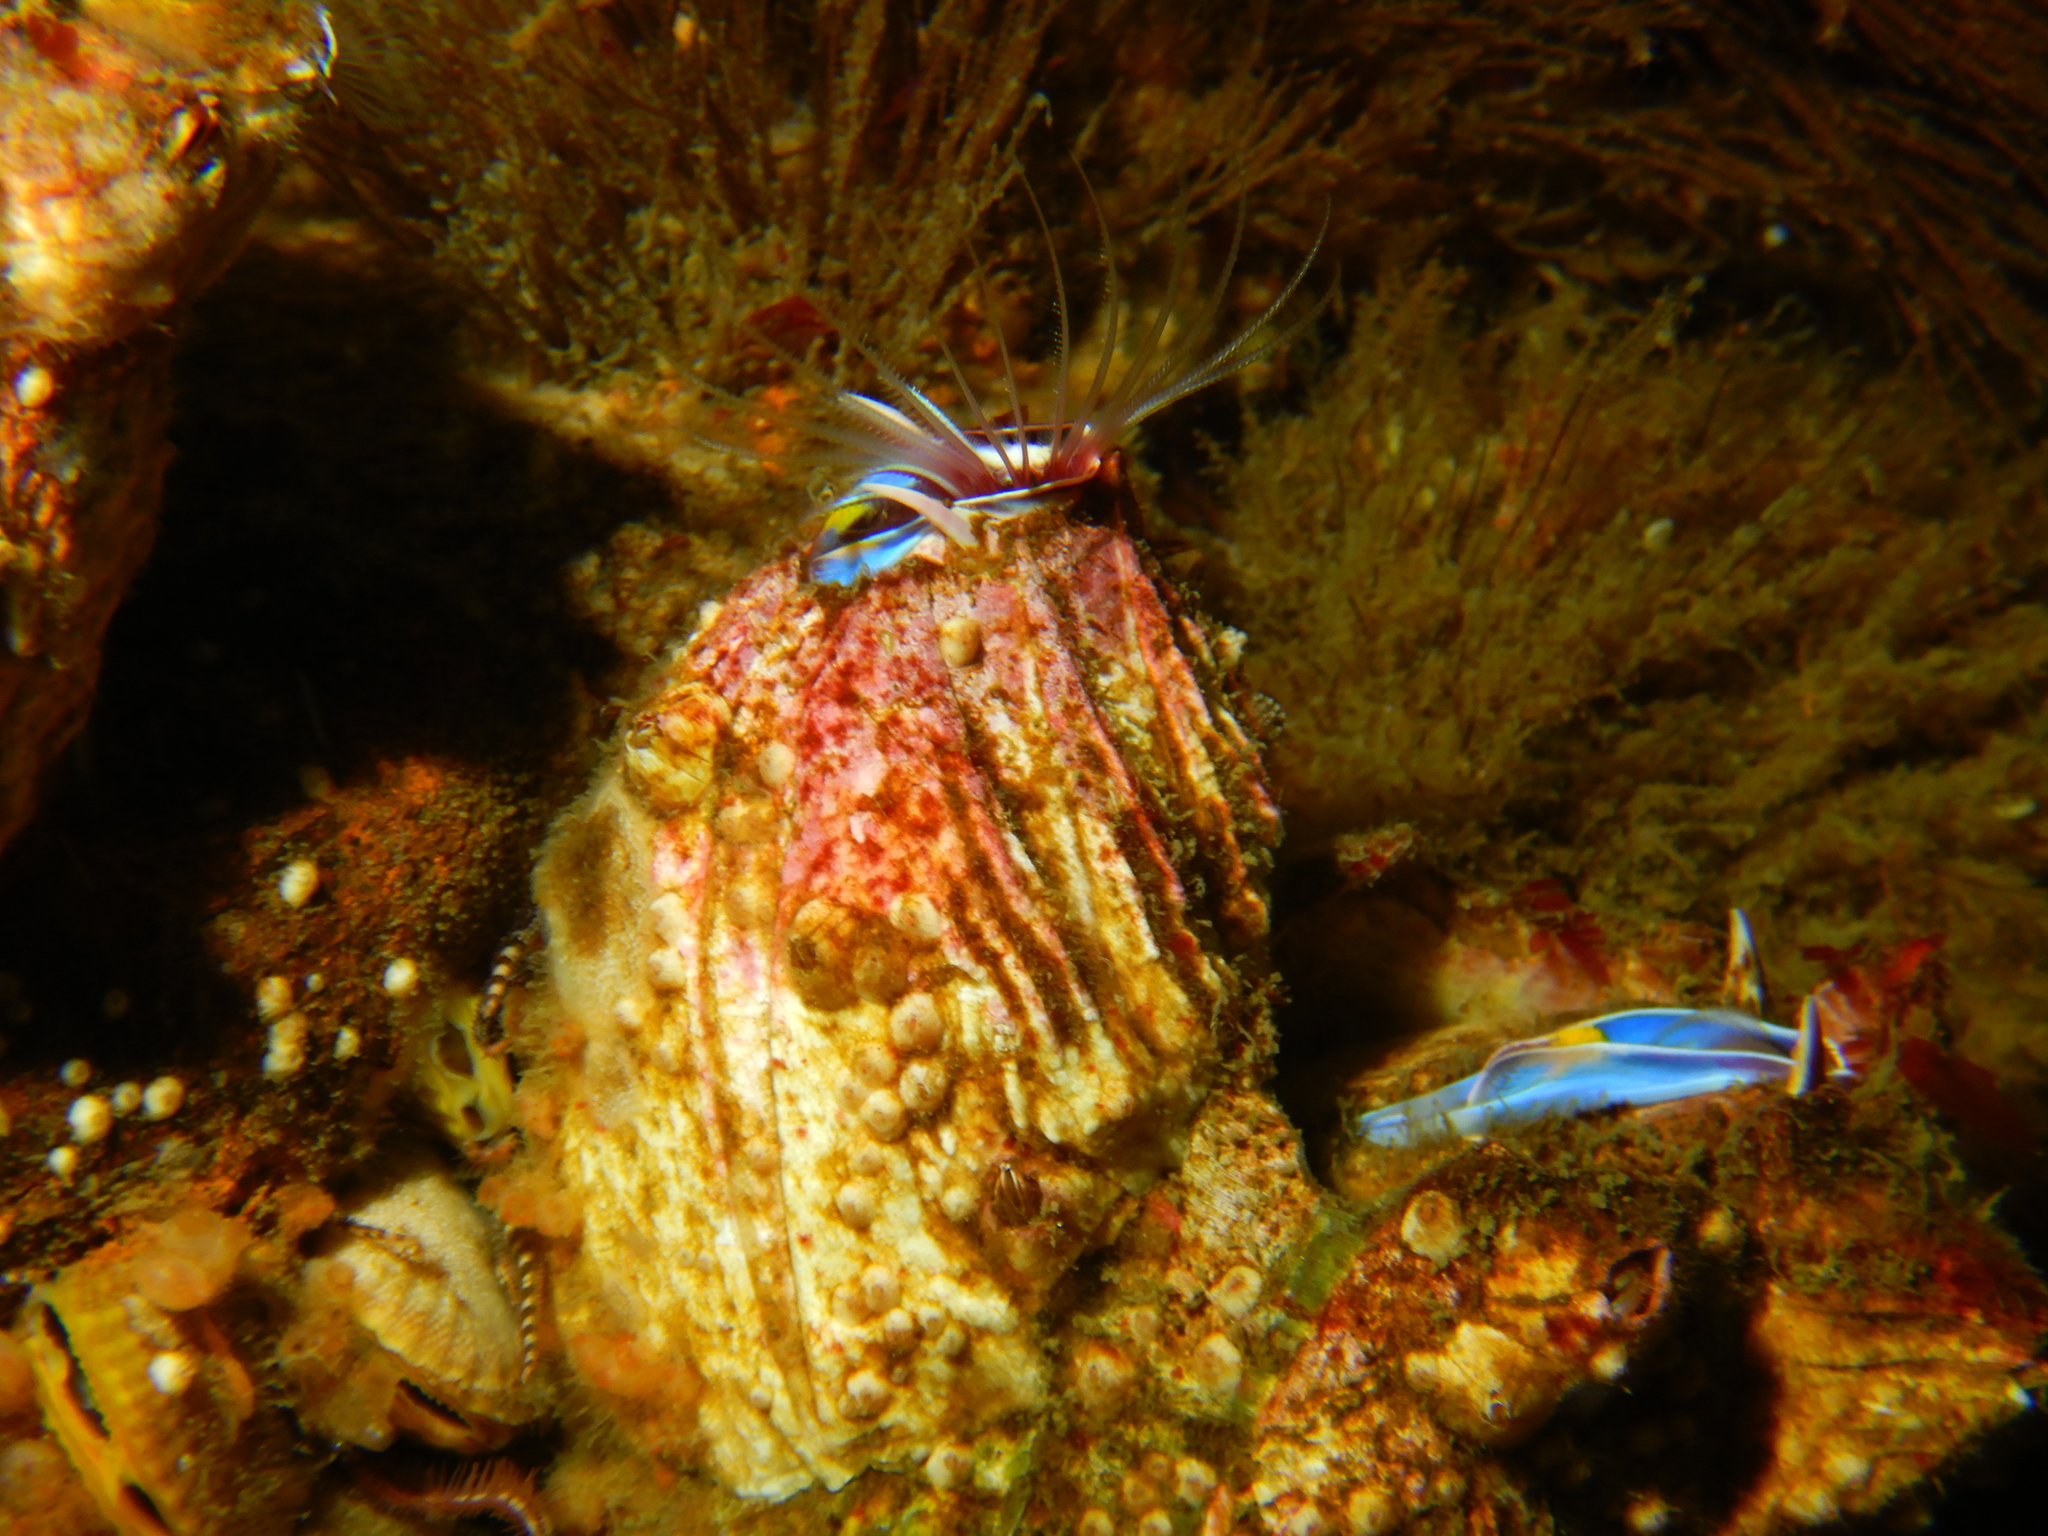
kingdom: Animalia
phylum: Arthropoda
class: Maxillopoda
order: Sessilia
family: Balanidae
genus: Austromegabalanus
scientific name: Austromegabalanus psittacus
